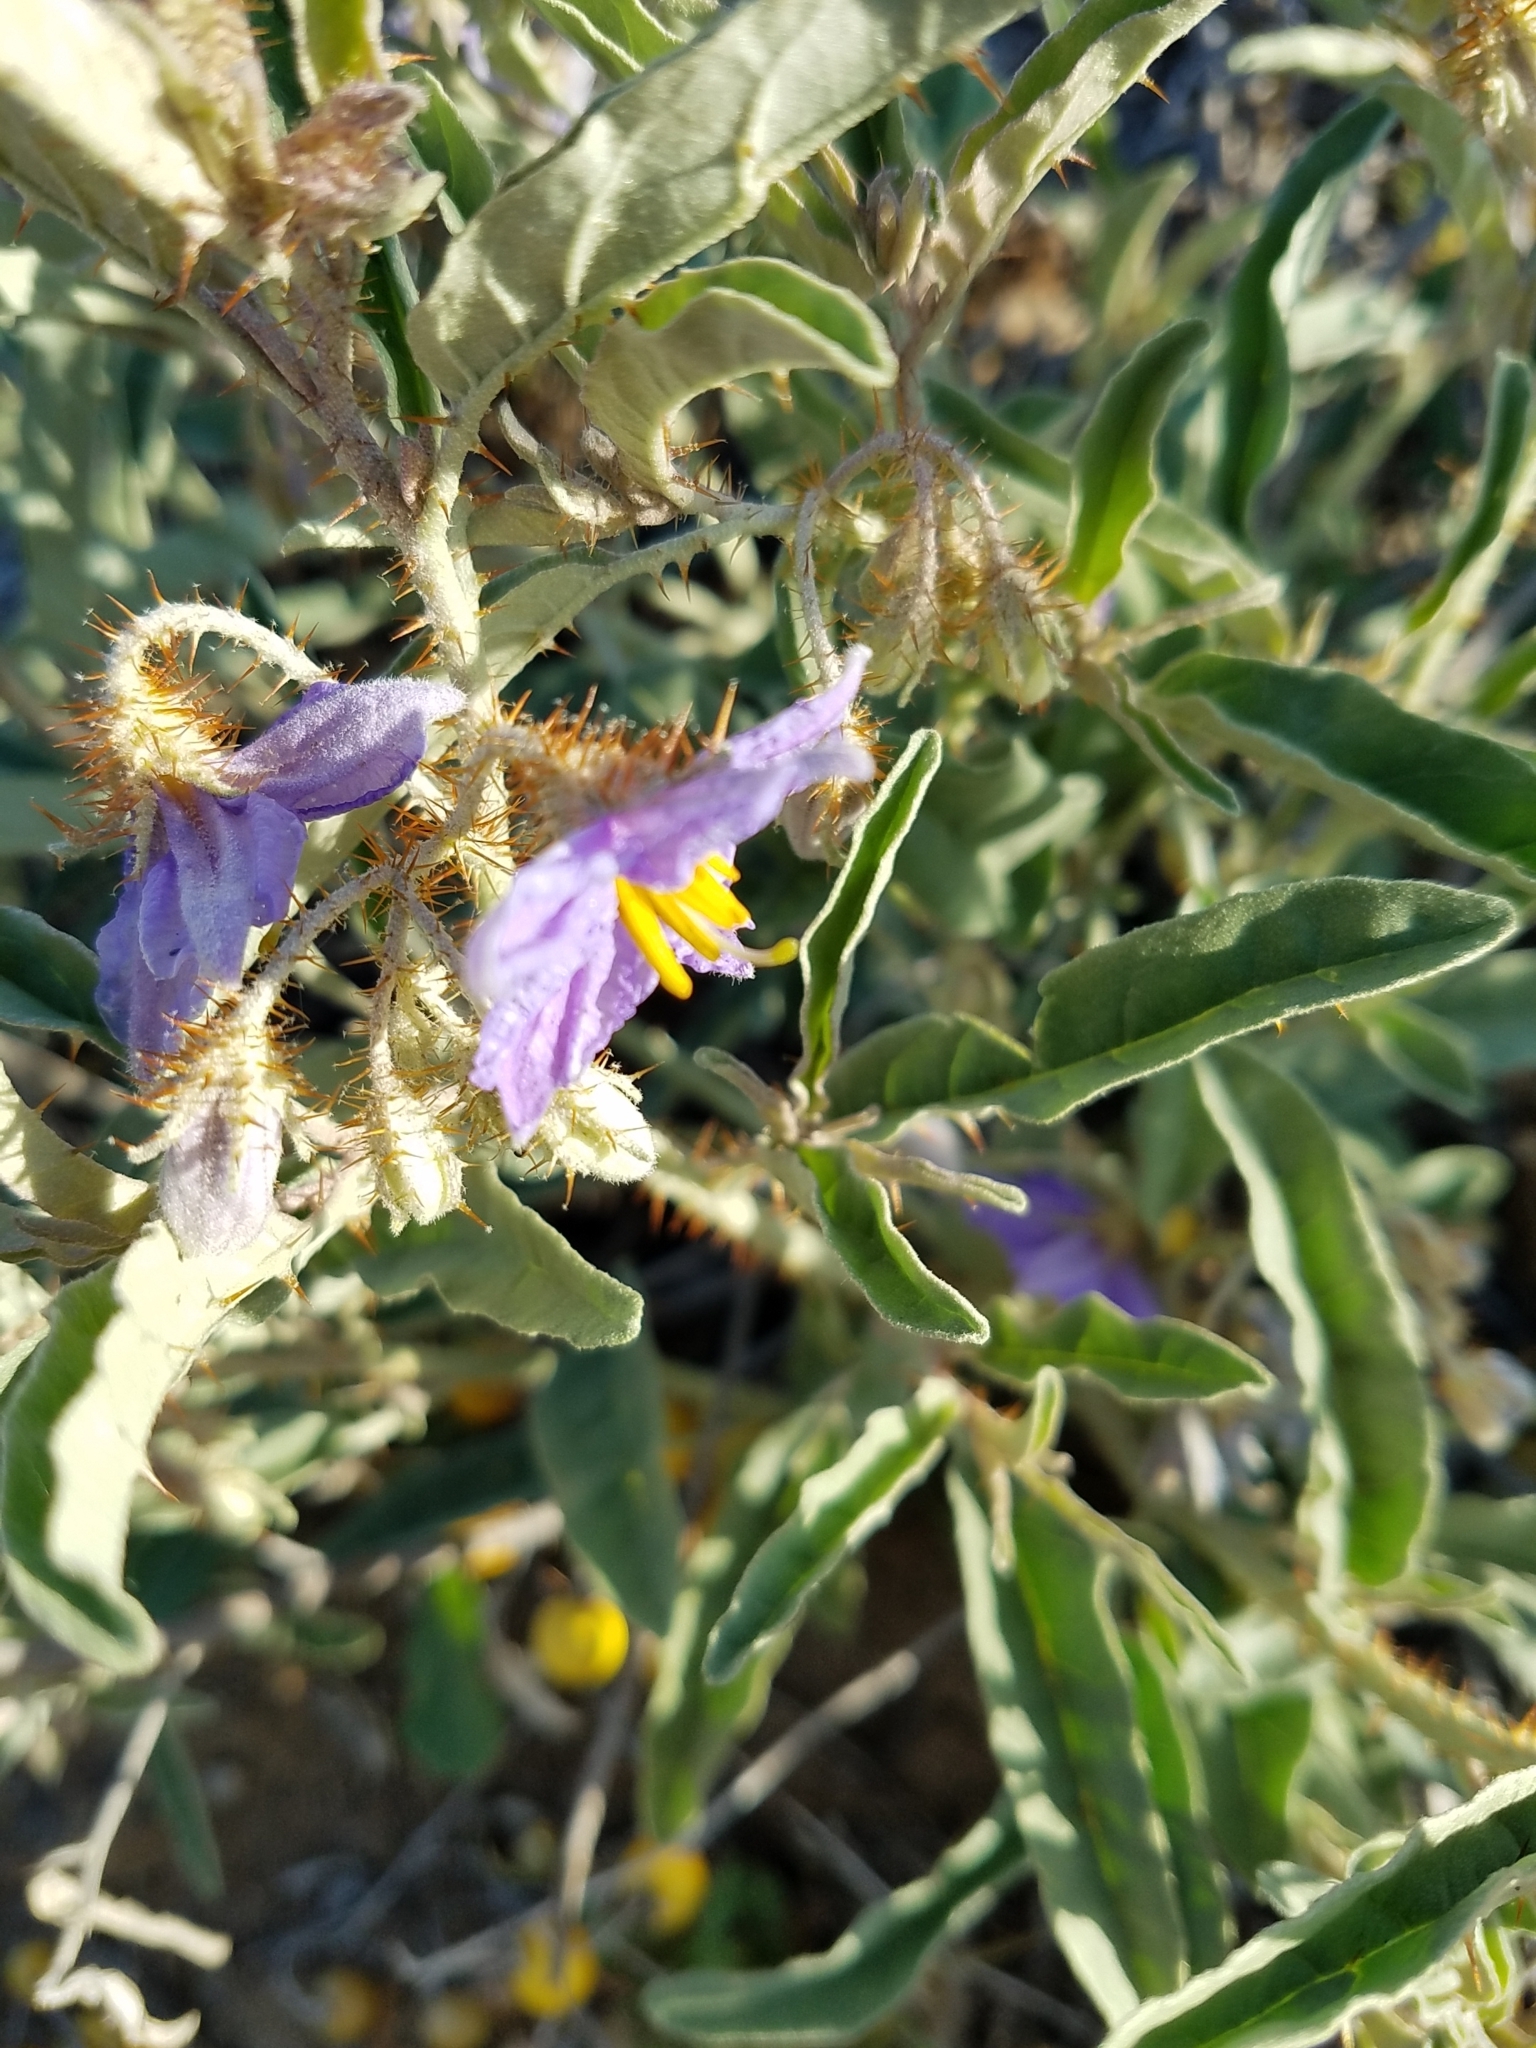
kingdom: Plantae
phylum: Tracheophyta
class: Magnoliopsida
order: Solanales
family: Solanaceae
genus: Solanum
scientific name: Solanum elaeagnifolium
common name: Silverleaf nightshade
